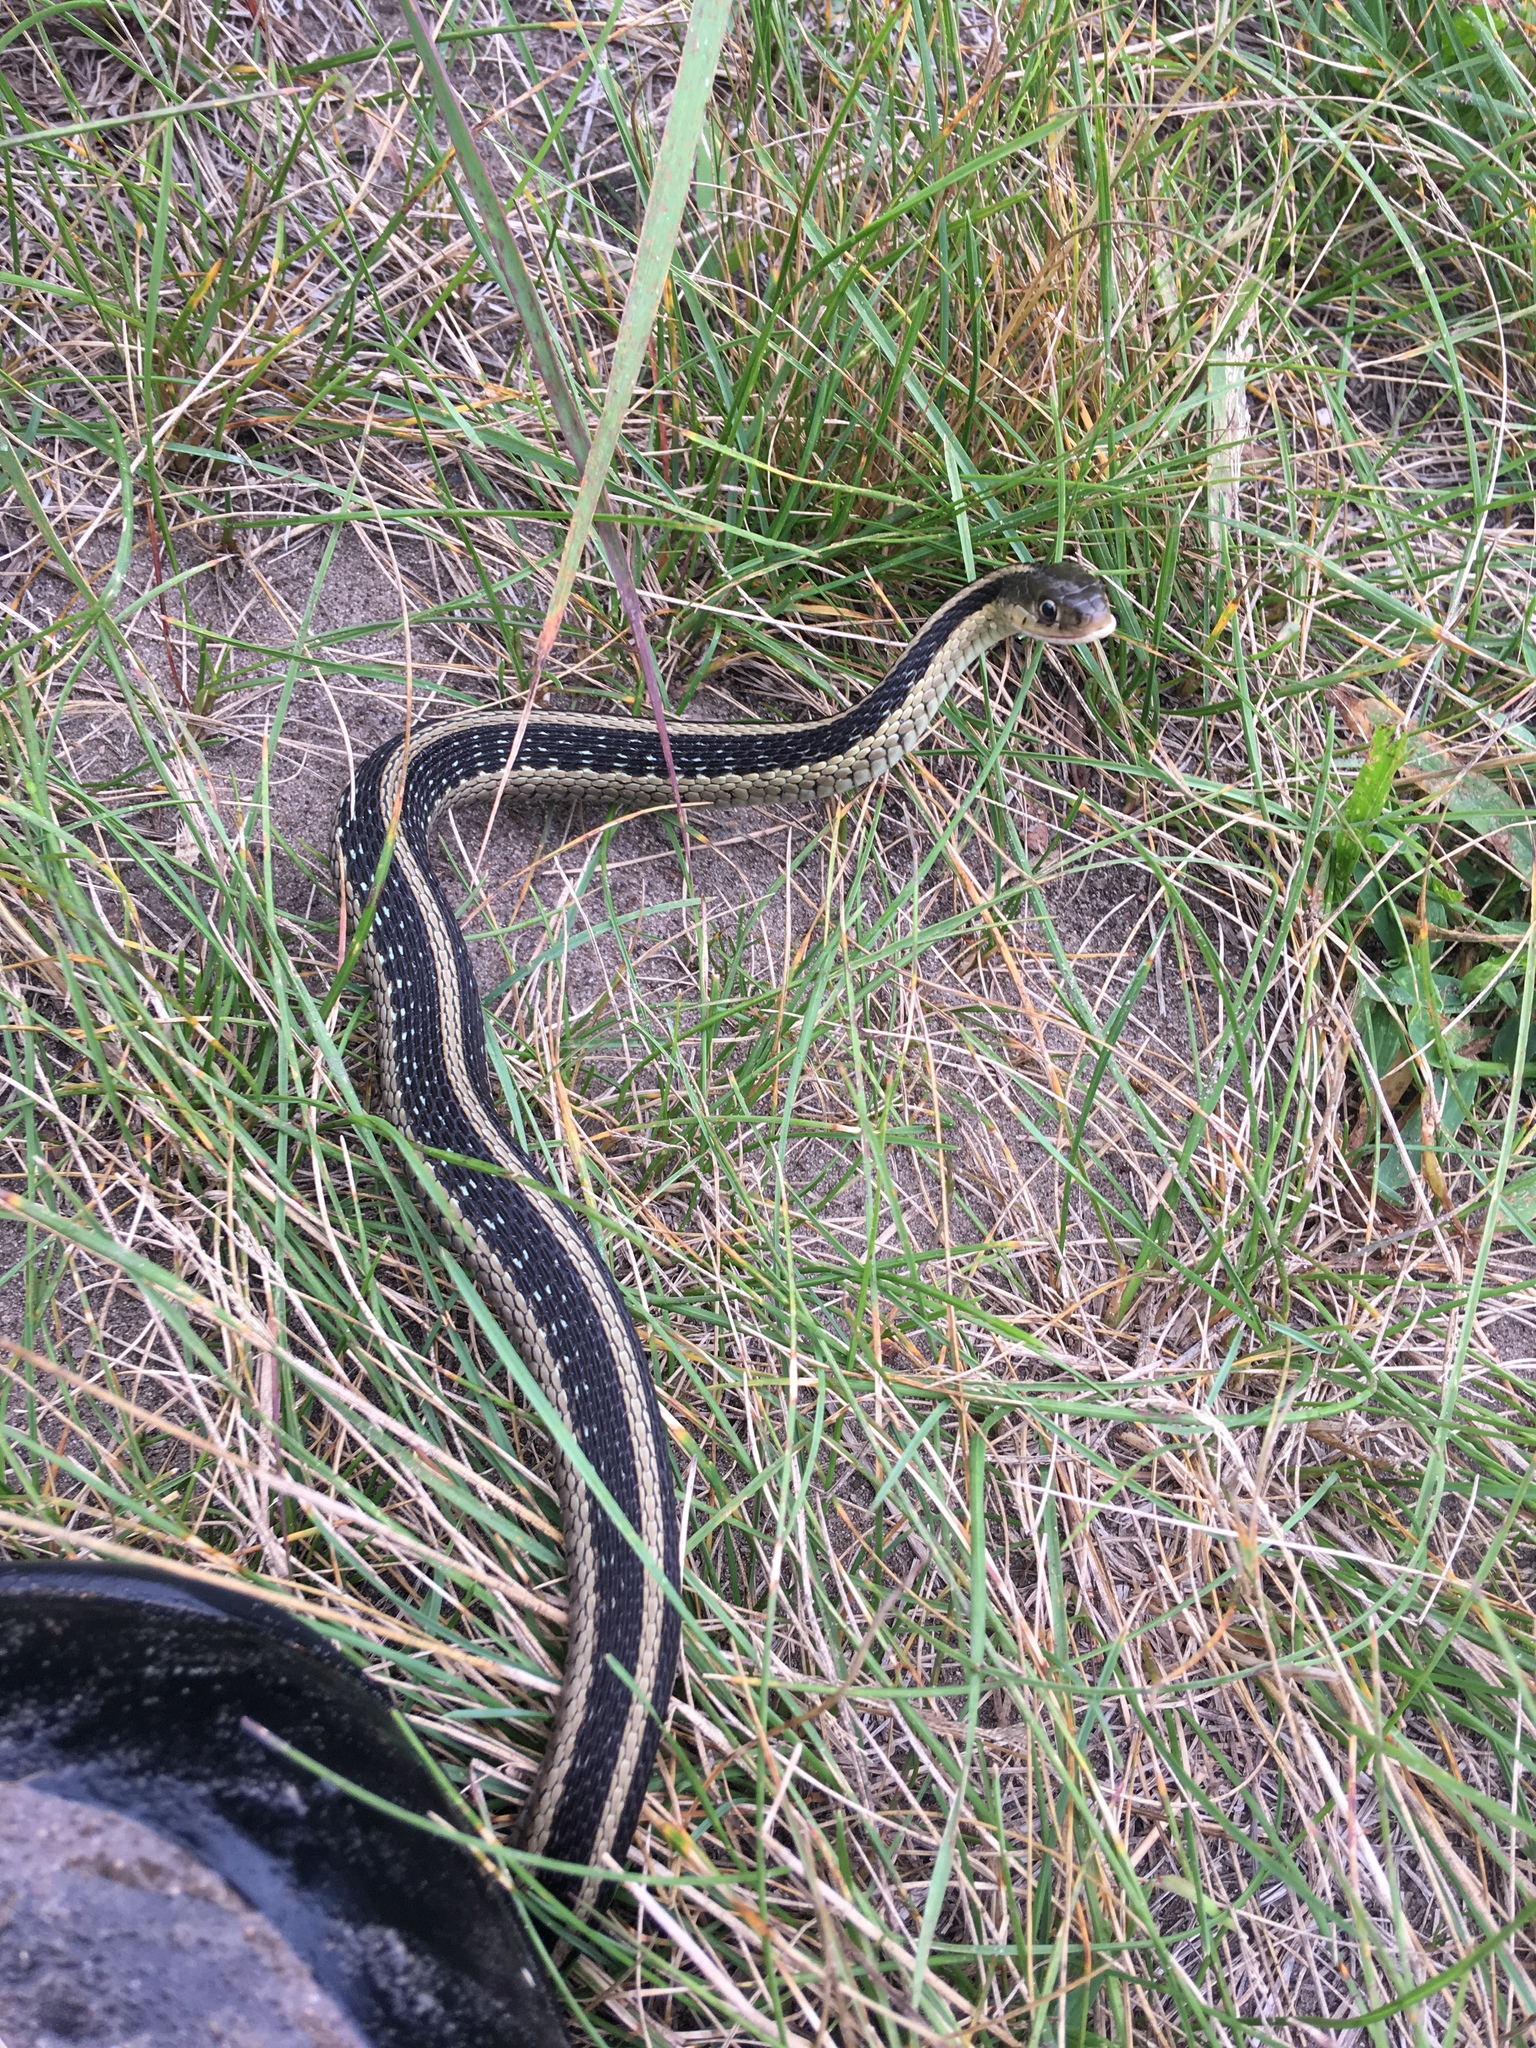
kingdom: Animalia
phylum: Chordata
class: Squamata
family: Colubridae
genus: Thamnophis
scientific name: Thamnophis sirtalis
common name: Common garter snake
